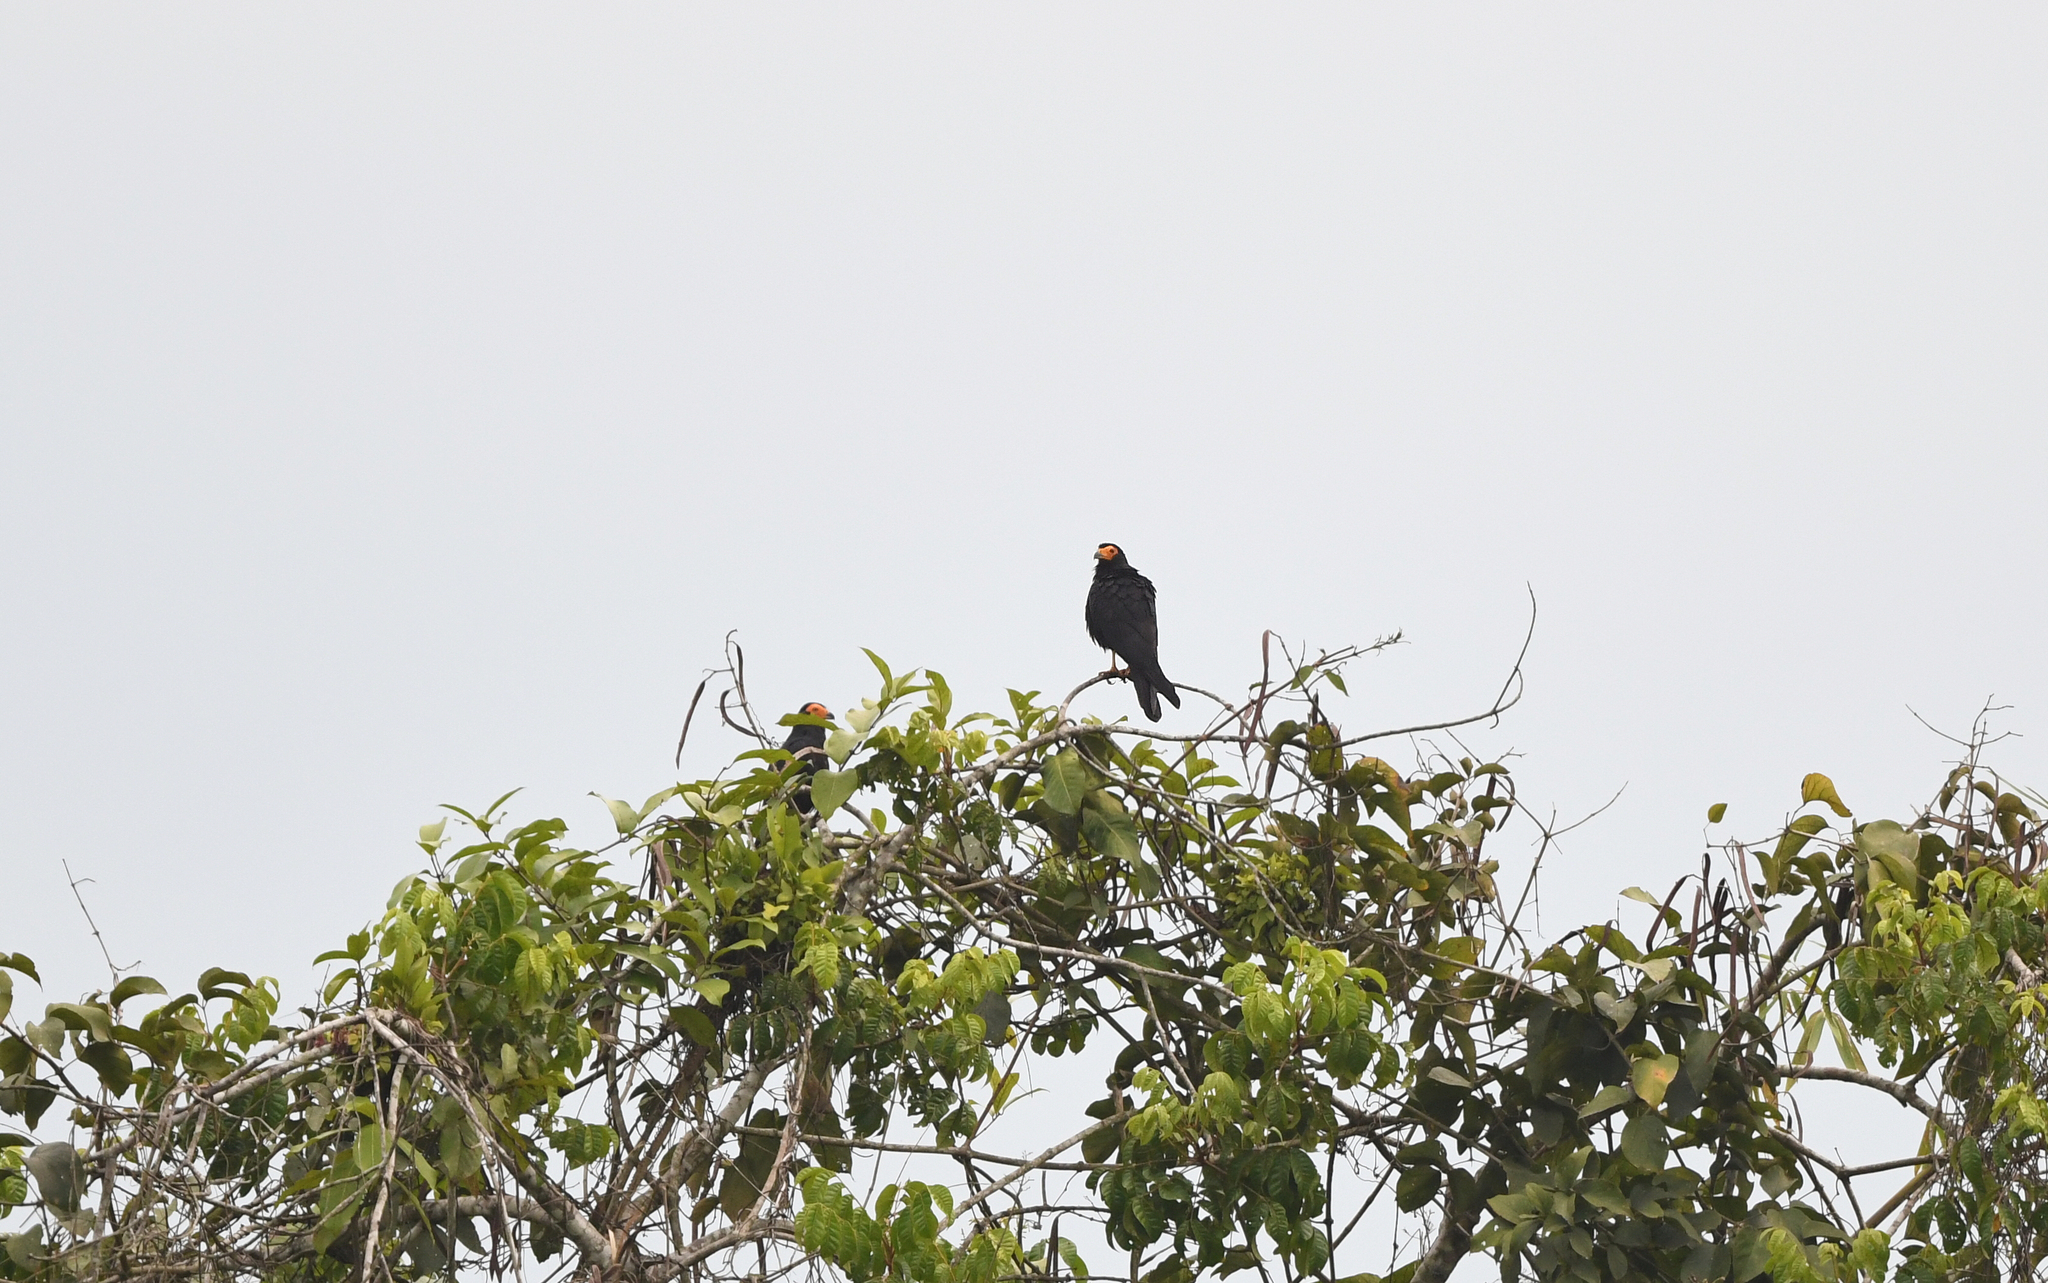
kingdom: Animalia
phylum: Chordata
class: Aves
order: Falconiformes
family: Falconidae
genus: Daptrius
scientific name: Daptrius ater
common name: Black caracara
